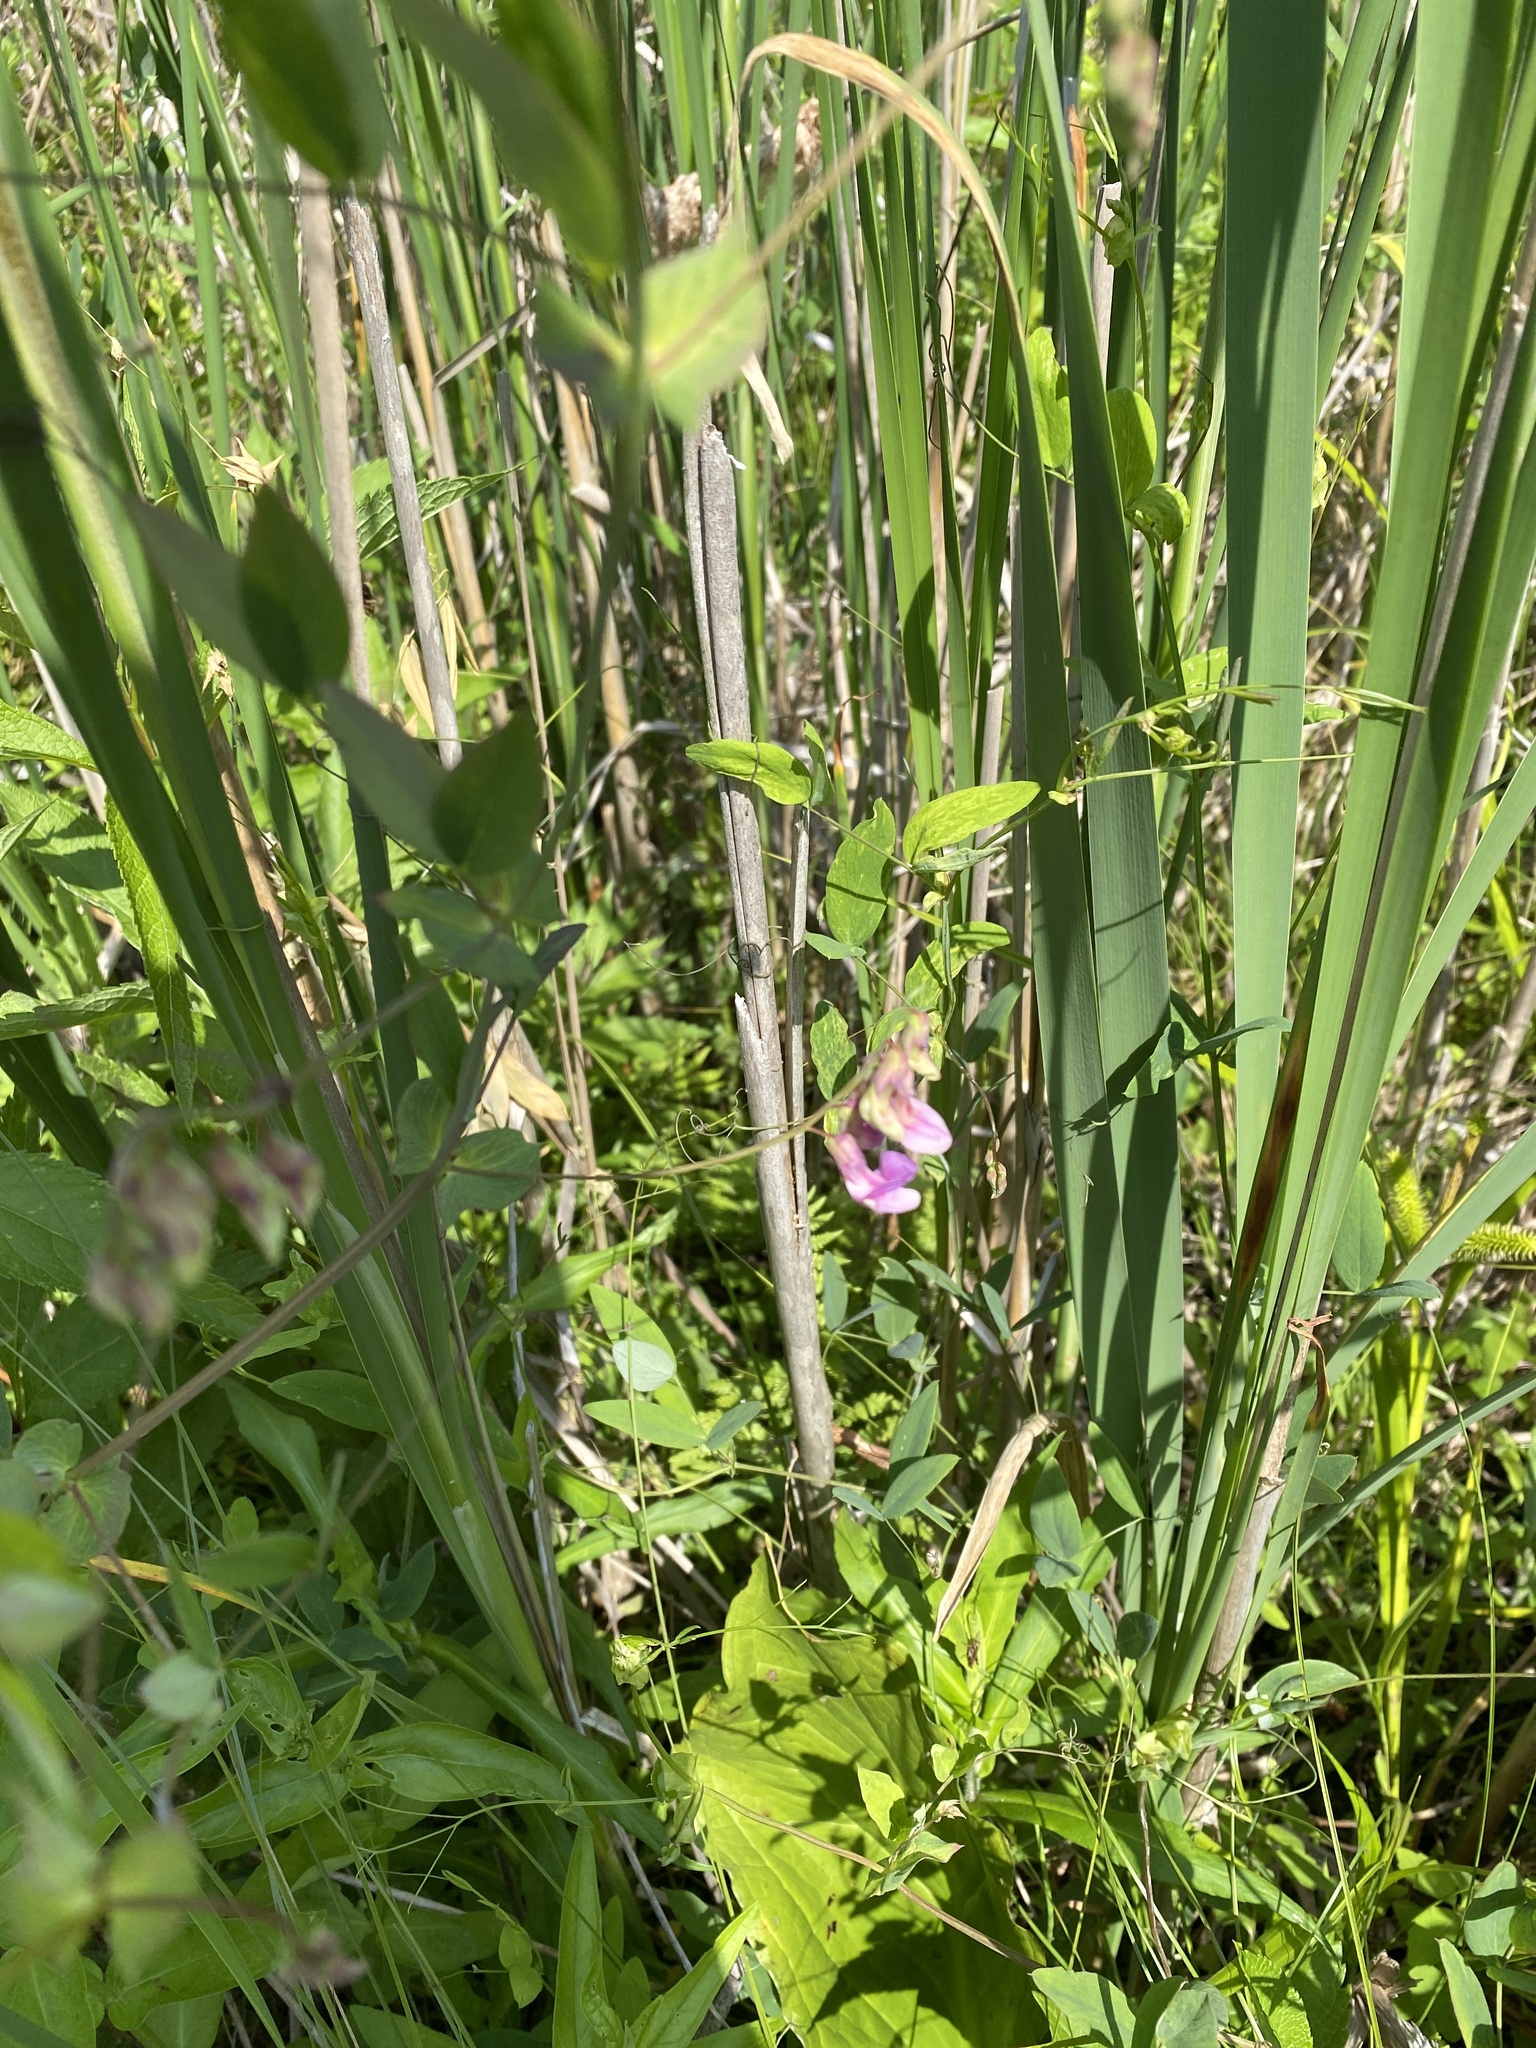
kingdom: Plantae
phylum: Tracheophyta
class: Magnoliopsida
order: Fabales
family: Fabaceae
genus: Lathyrus
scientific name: Lathyrus palustris
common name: Marsh pea
